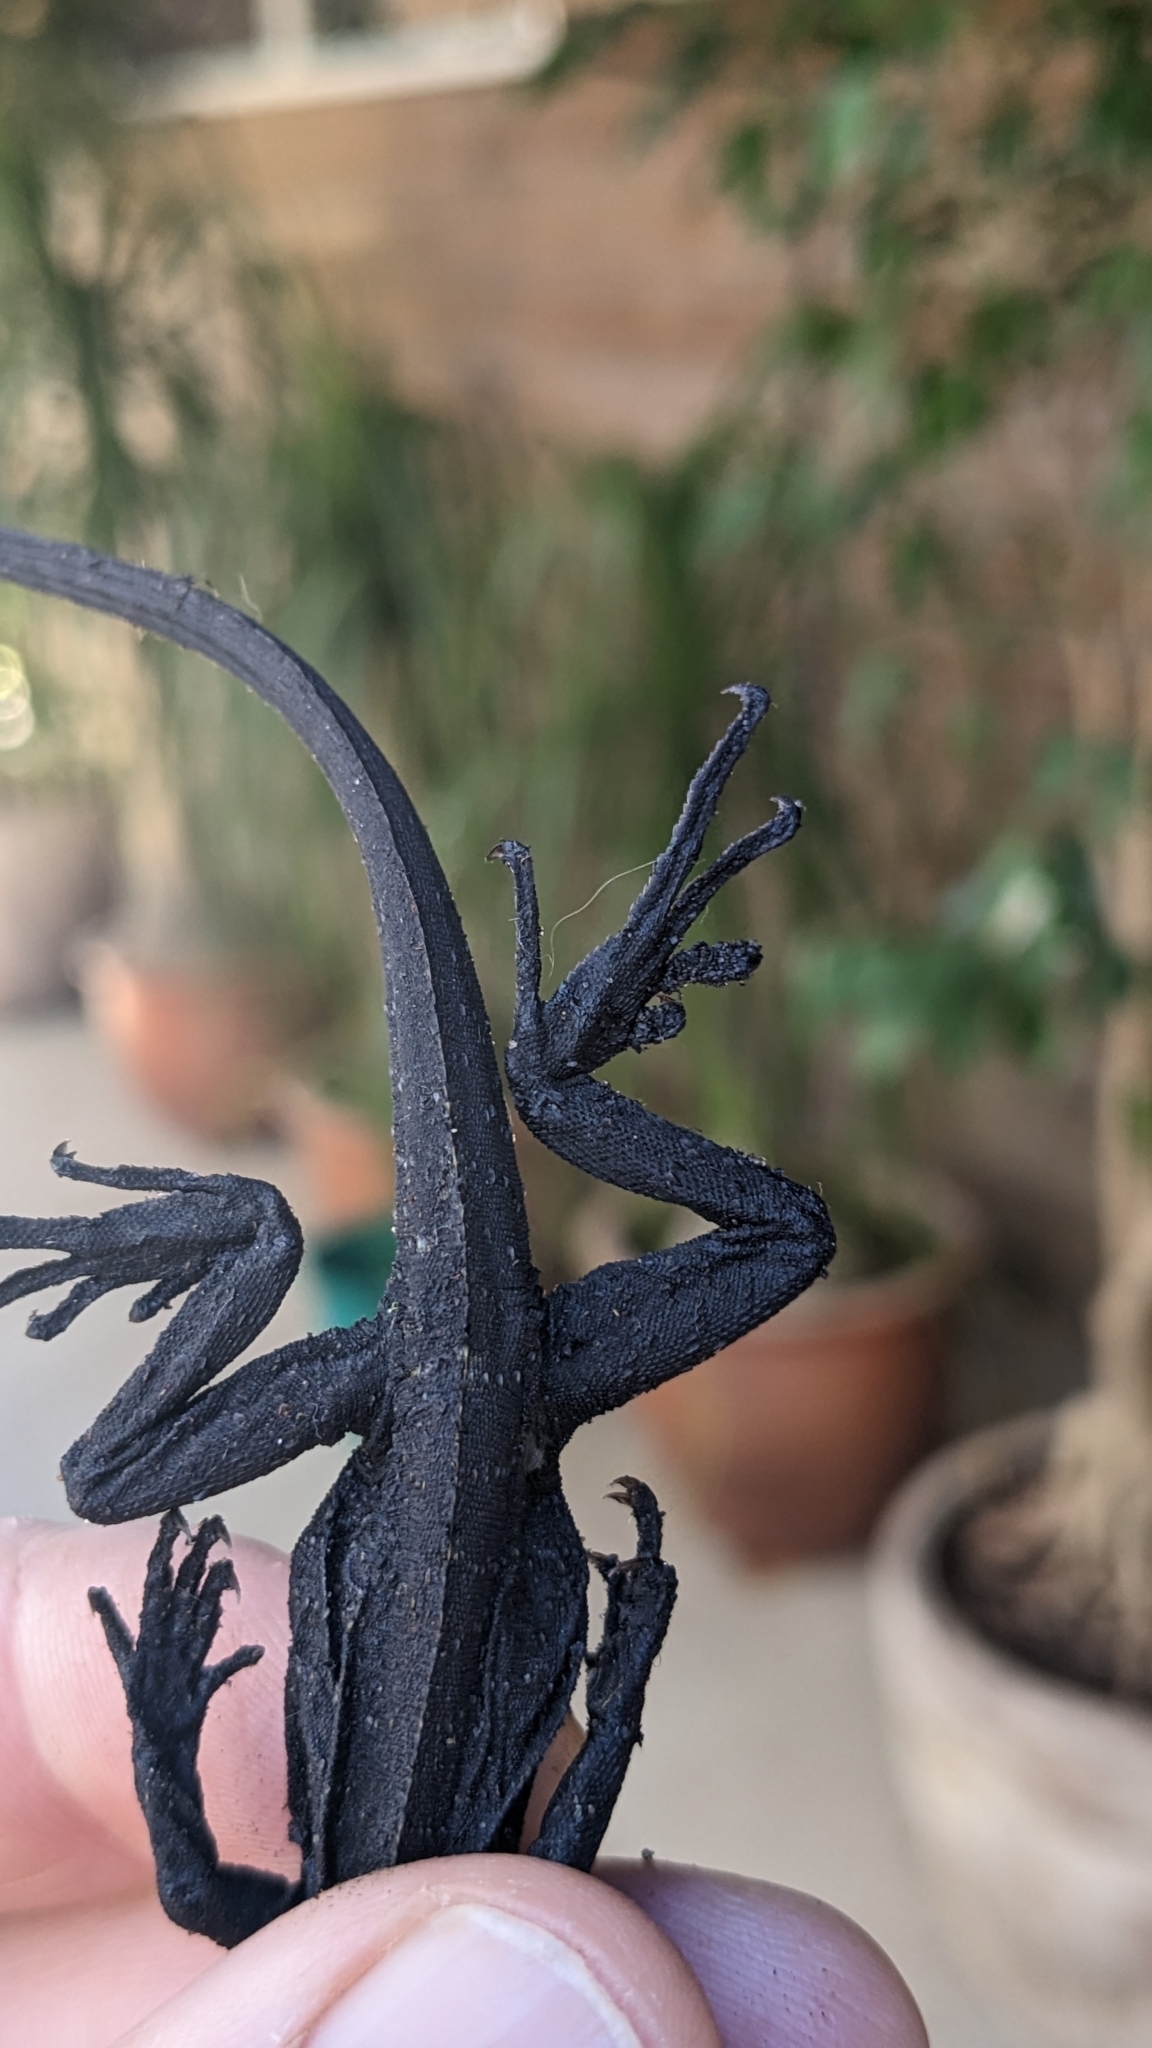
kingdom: Animalia
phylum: Chordata
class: Squamata
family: Agamidae
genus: Intellagama
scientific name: Intellagama lesueurii
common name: Eastern water dragon
